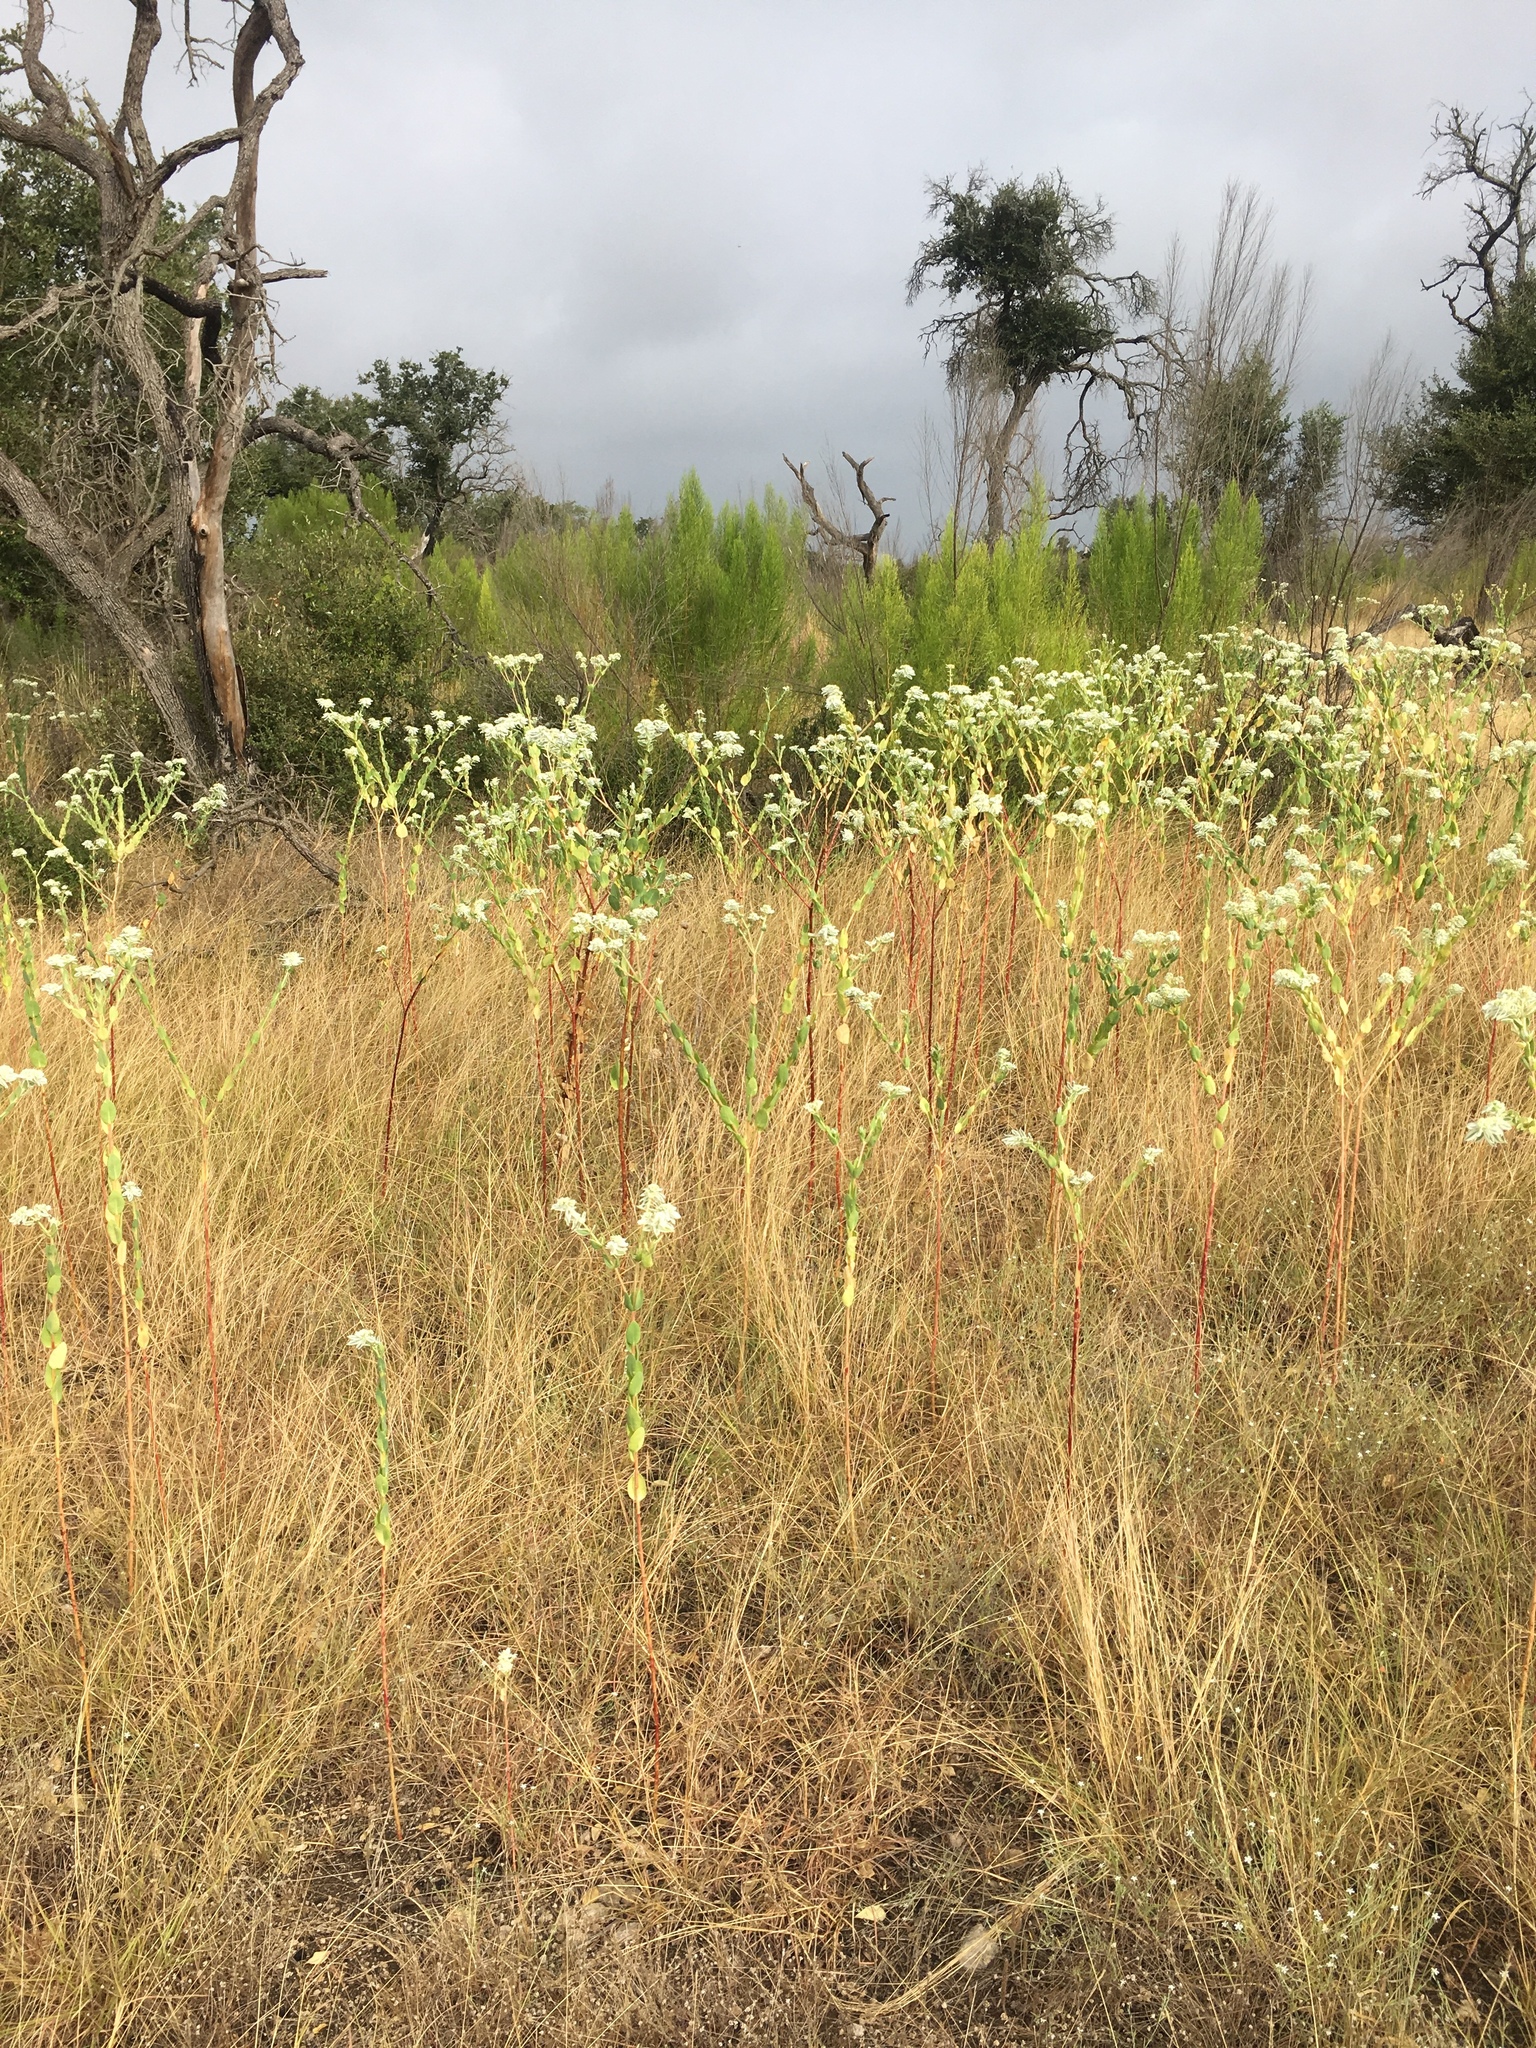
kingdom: Plantae
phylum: Tracheophyta
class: Magnoliopsida
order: Malpighiales
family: Euphorbiaceae
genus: Euphorbia
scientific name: Euphorbia marginata
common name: Ghostweed
